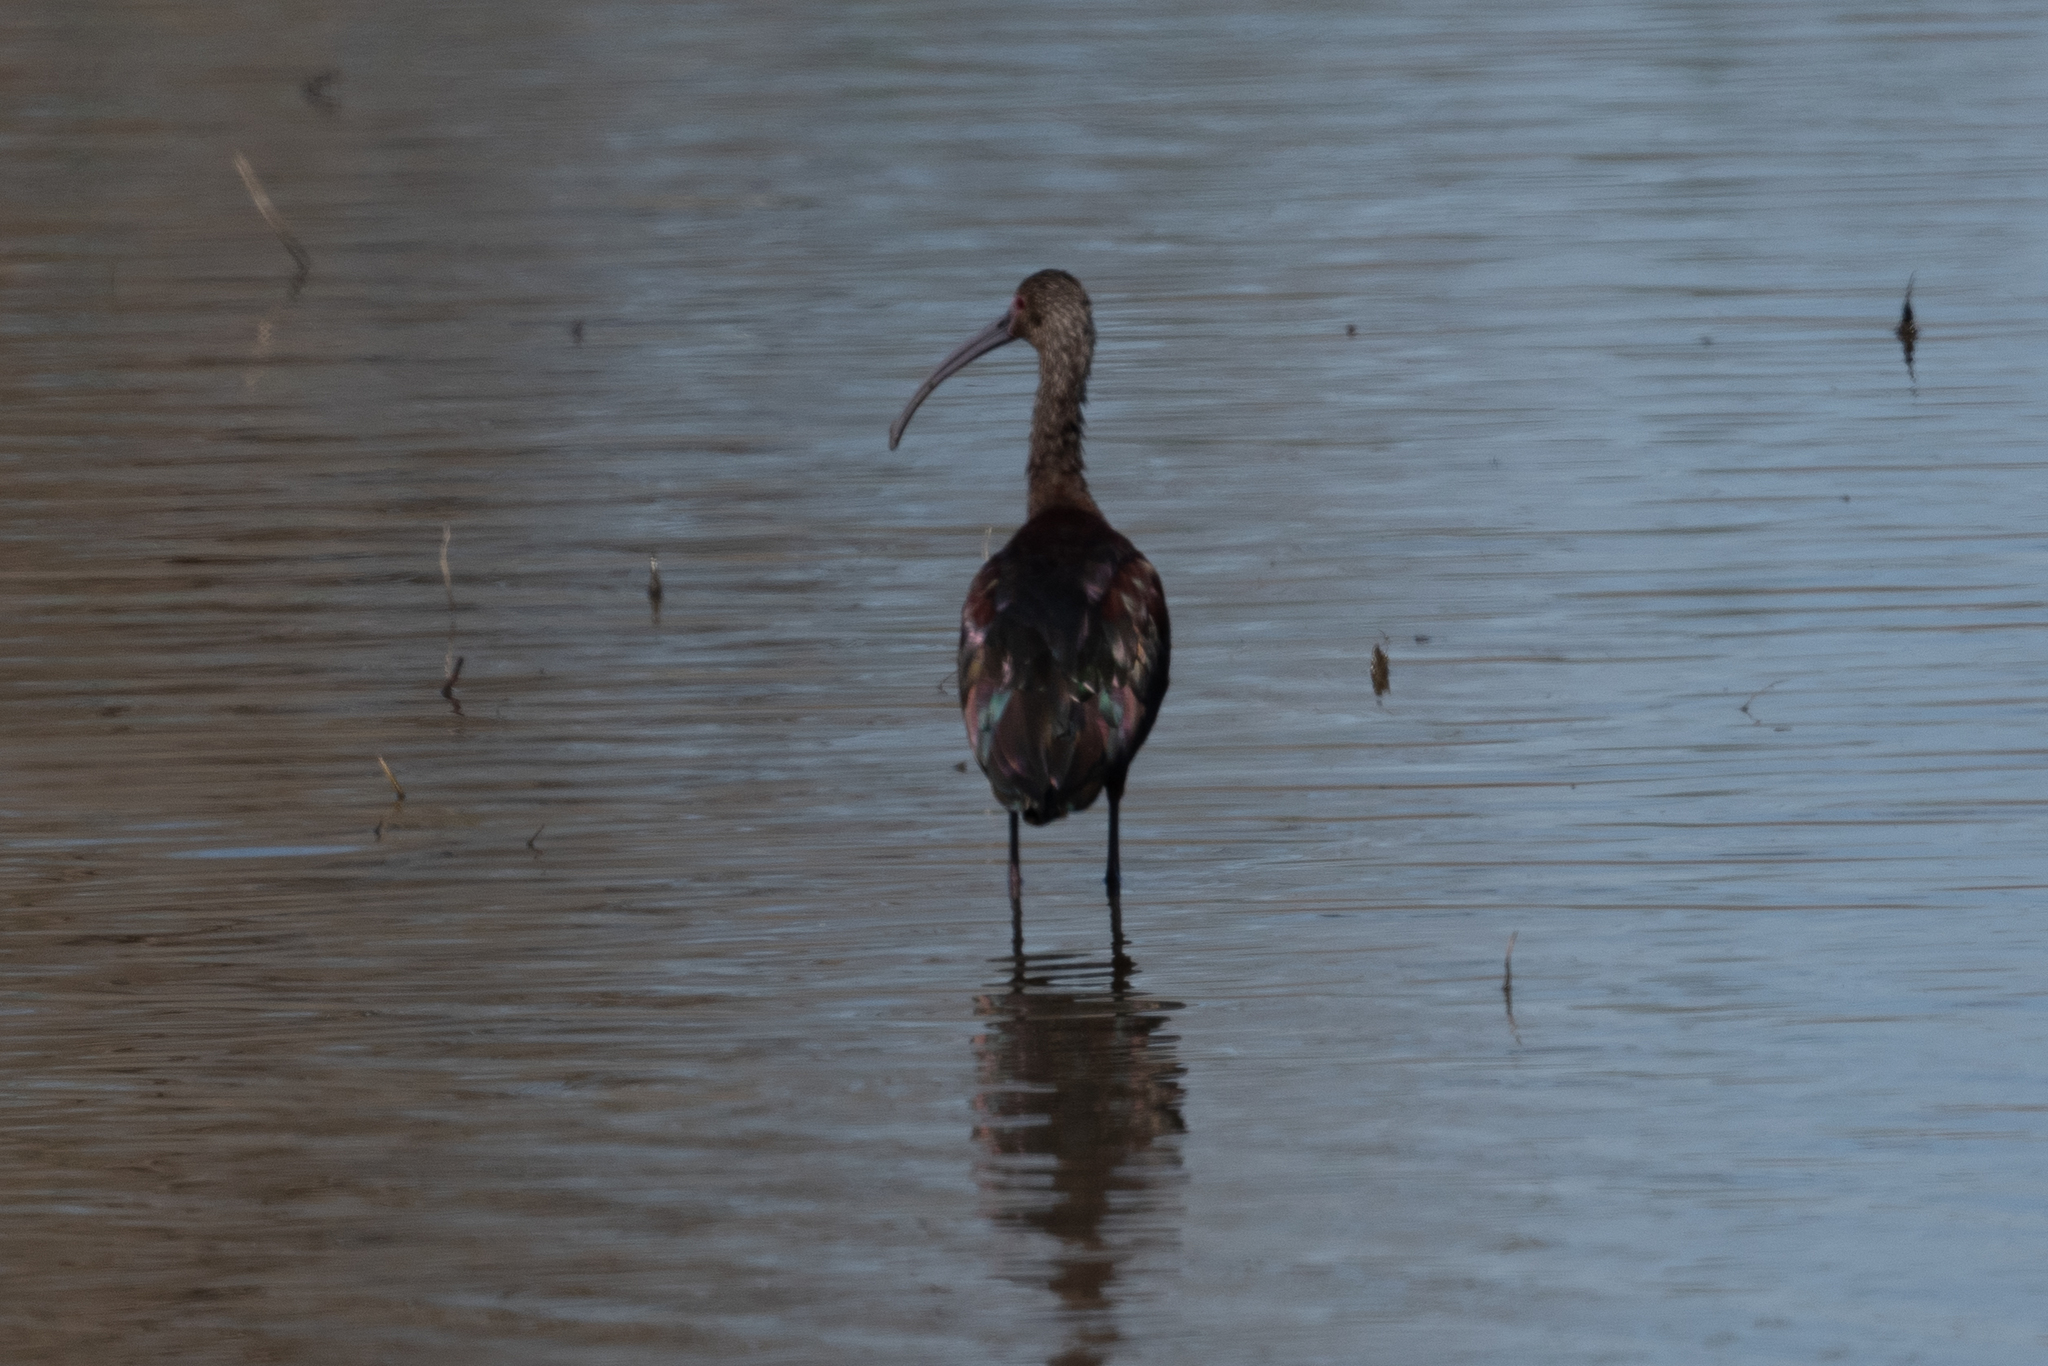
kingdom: Animalia
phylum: Chordata
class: Aves
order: Pelecaniformes
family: Threskiornithidae
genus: Plegadis
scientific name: Plegadis chihi
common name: White-faced ibis
